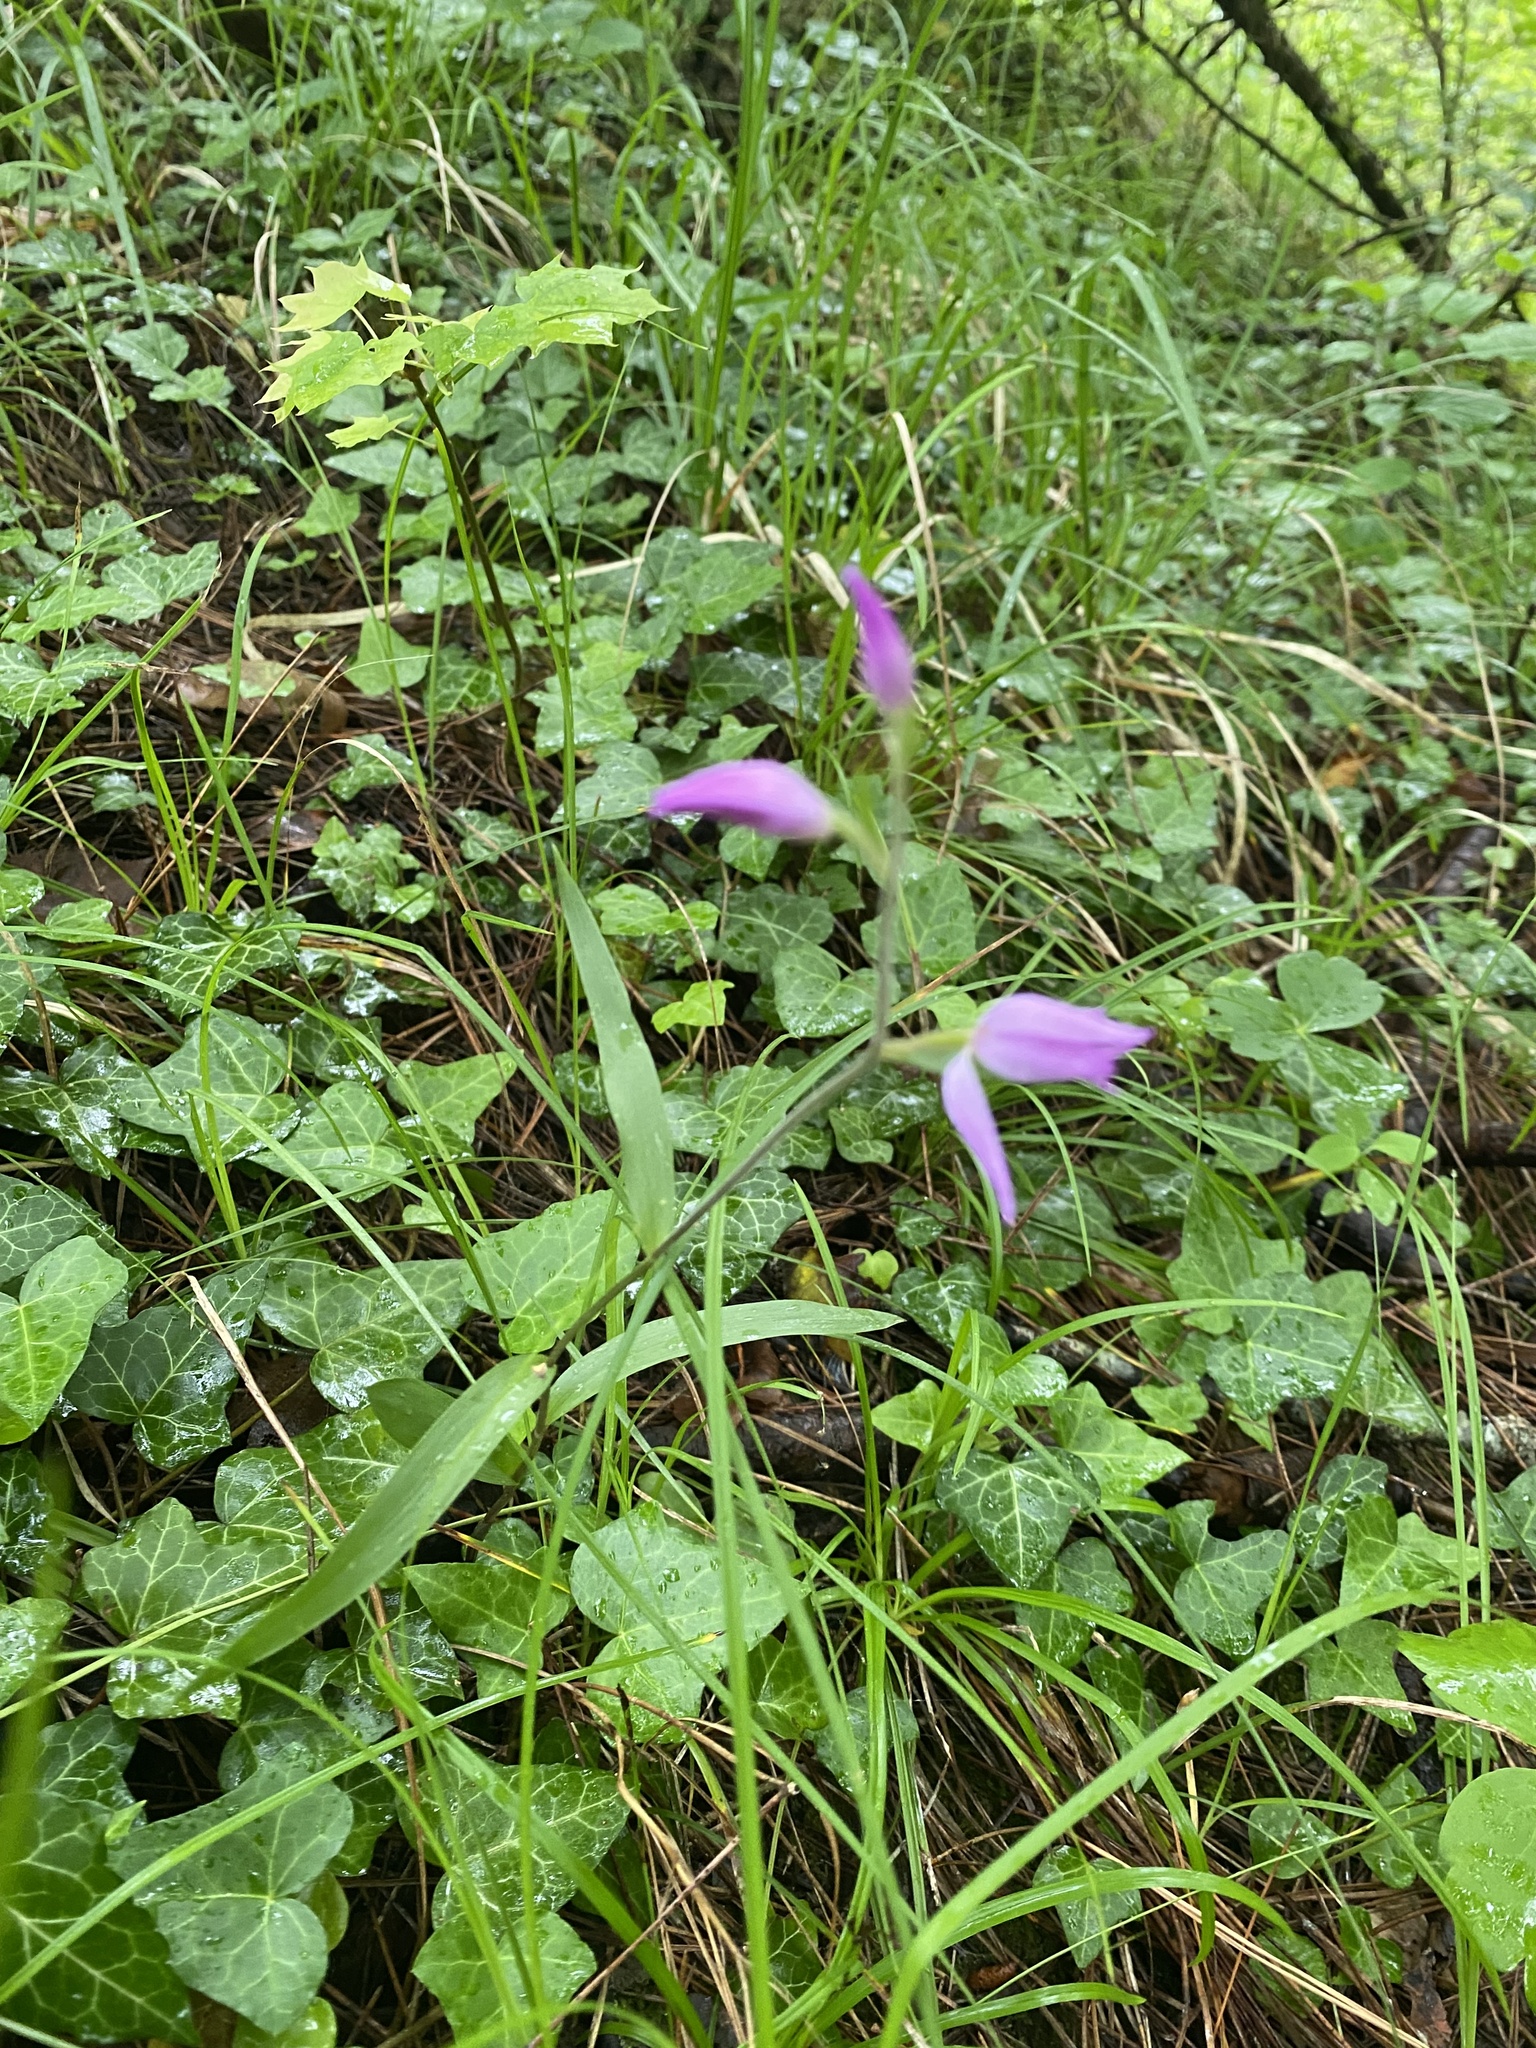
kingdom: Plantae
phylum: Tracheophyta
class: Liliopsida
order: Asparagales
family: Orchidaceae
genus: Cephalanthera
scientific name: Cephalanthera rubra
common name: Red helleborine
